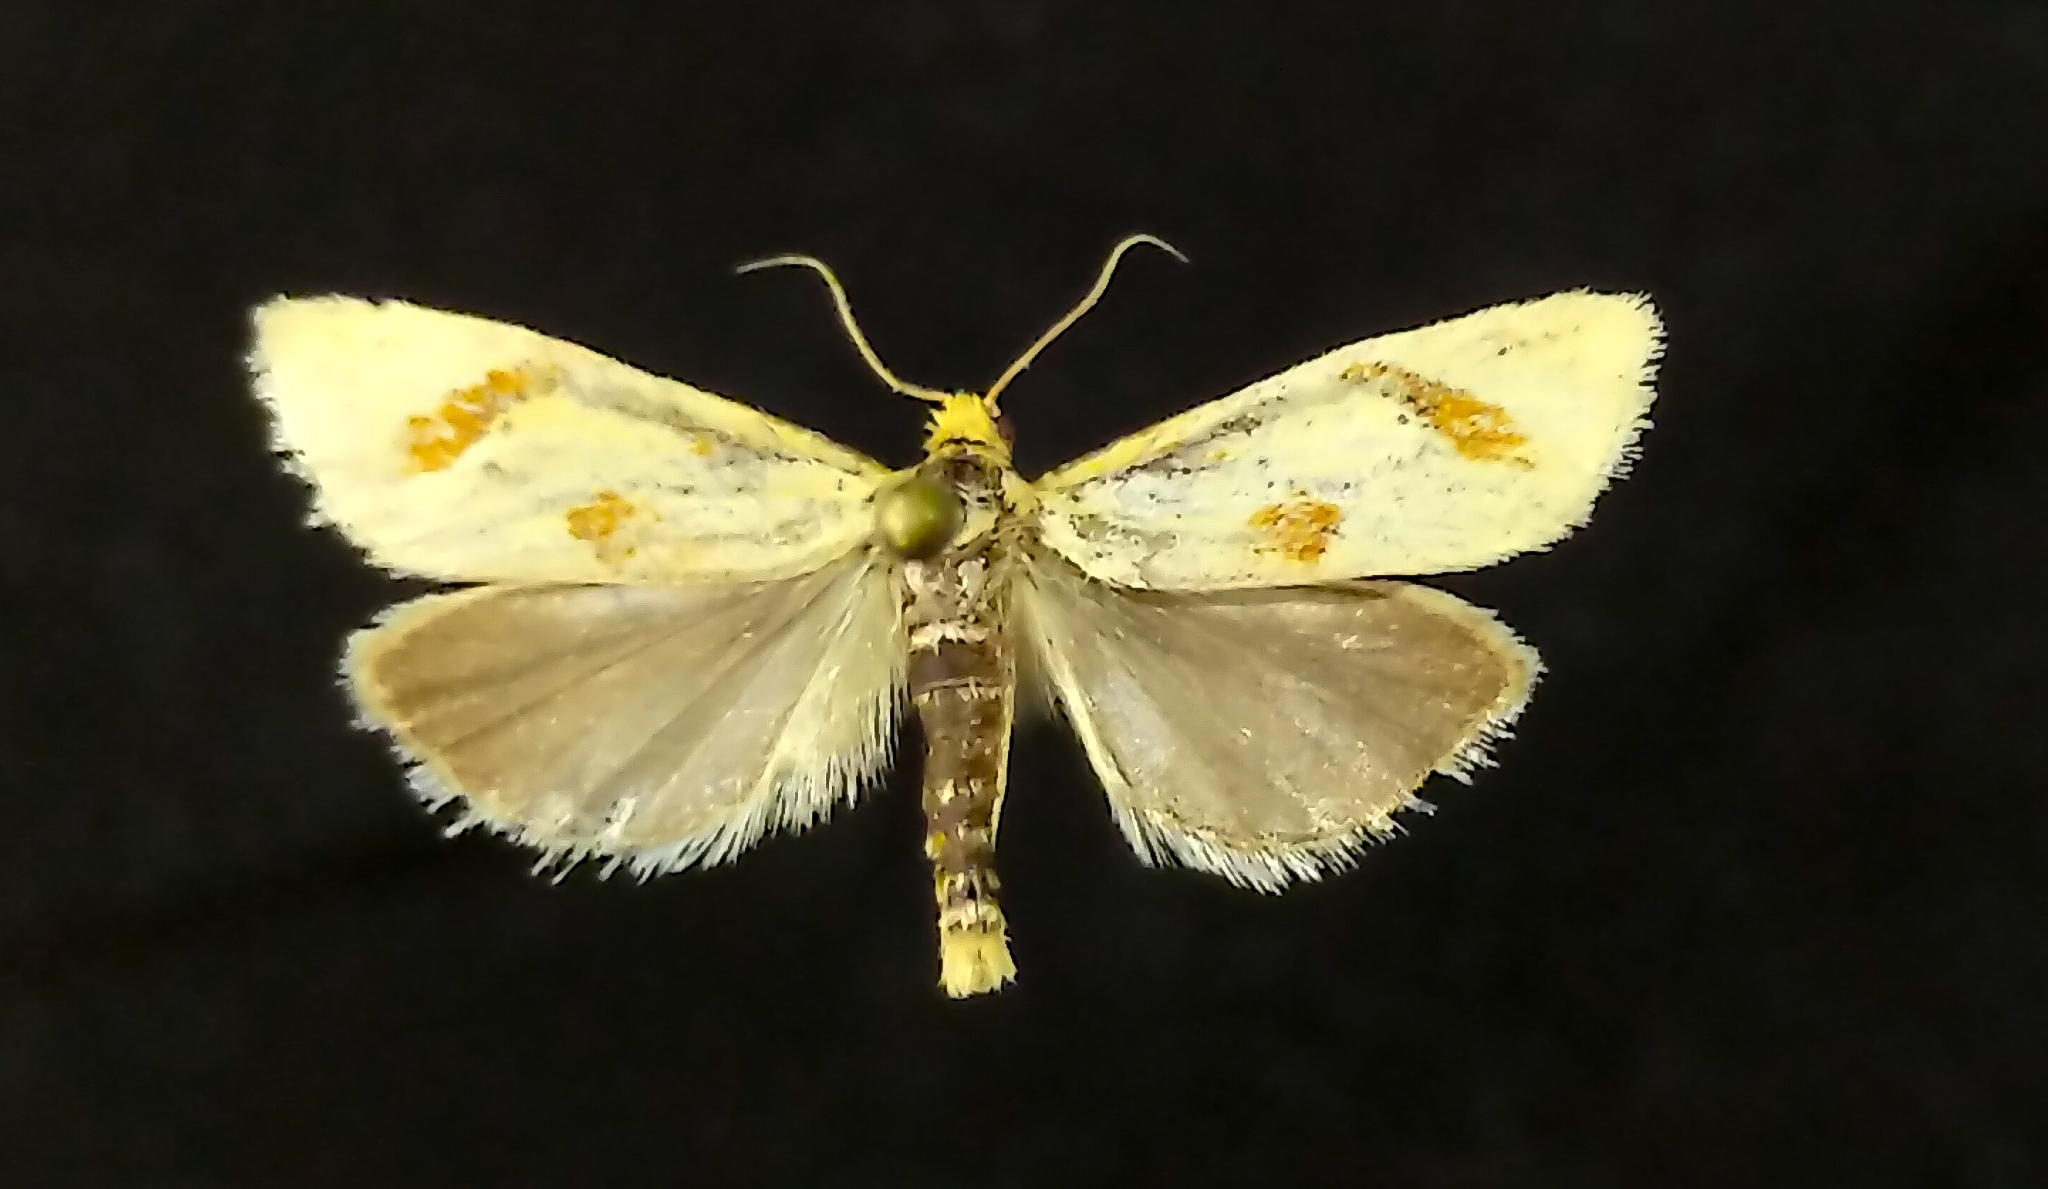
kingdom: Animalia
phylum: Arthropoda
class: Insecta
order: Lepidoptera
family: Tortricidae
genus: Pelochrista
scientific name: Pelochrista biplagata
